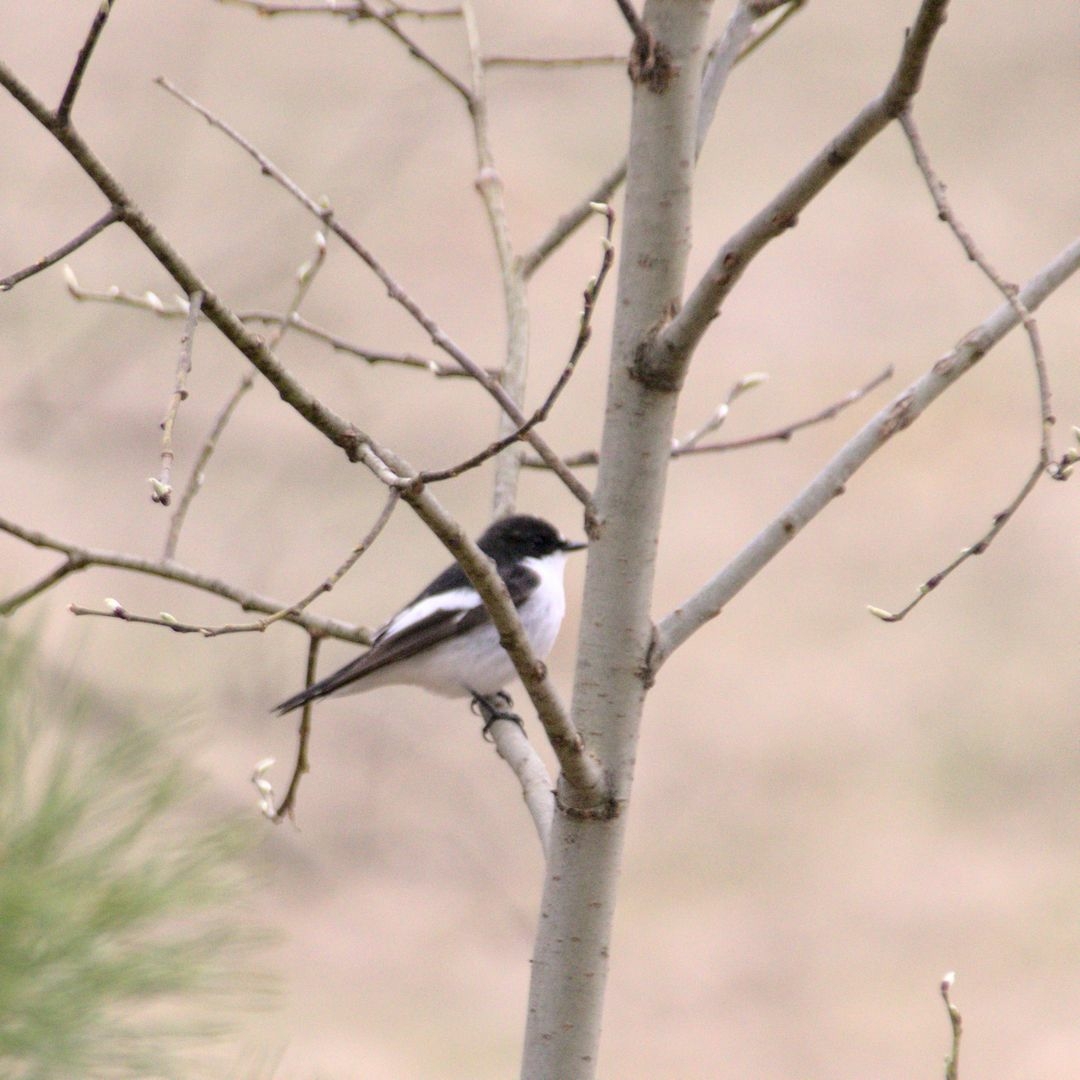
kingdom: Animalia
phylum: Chordata
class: Aves
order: Passeriformes
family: Muscicapidae
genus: Ficedula
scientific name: Ficedula hypoleuca
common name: European pied flycatcher
